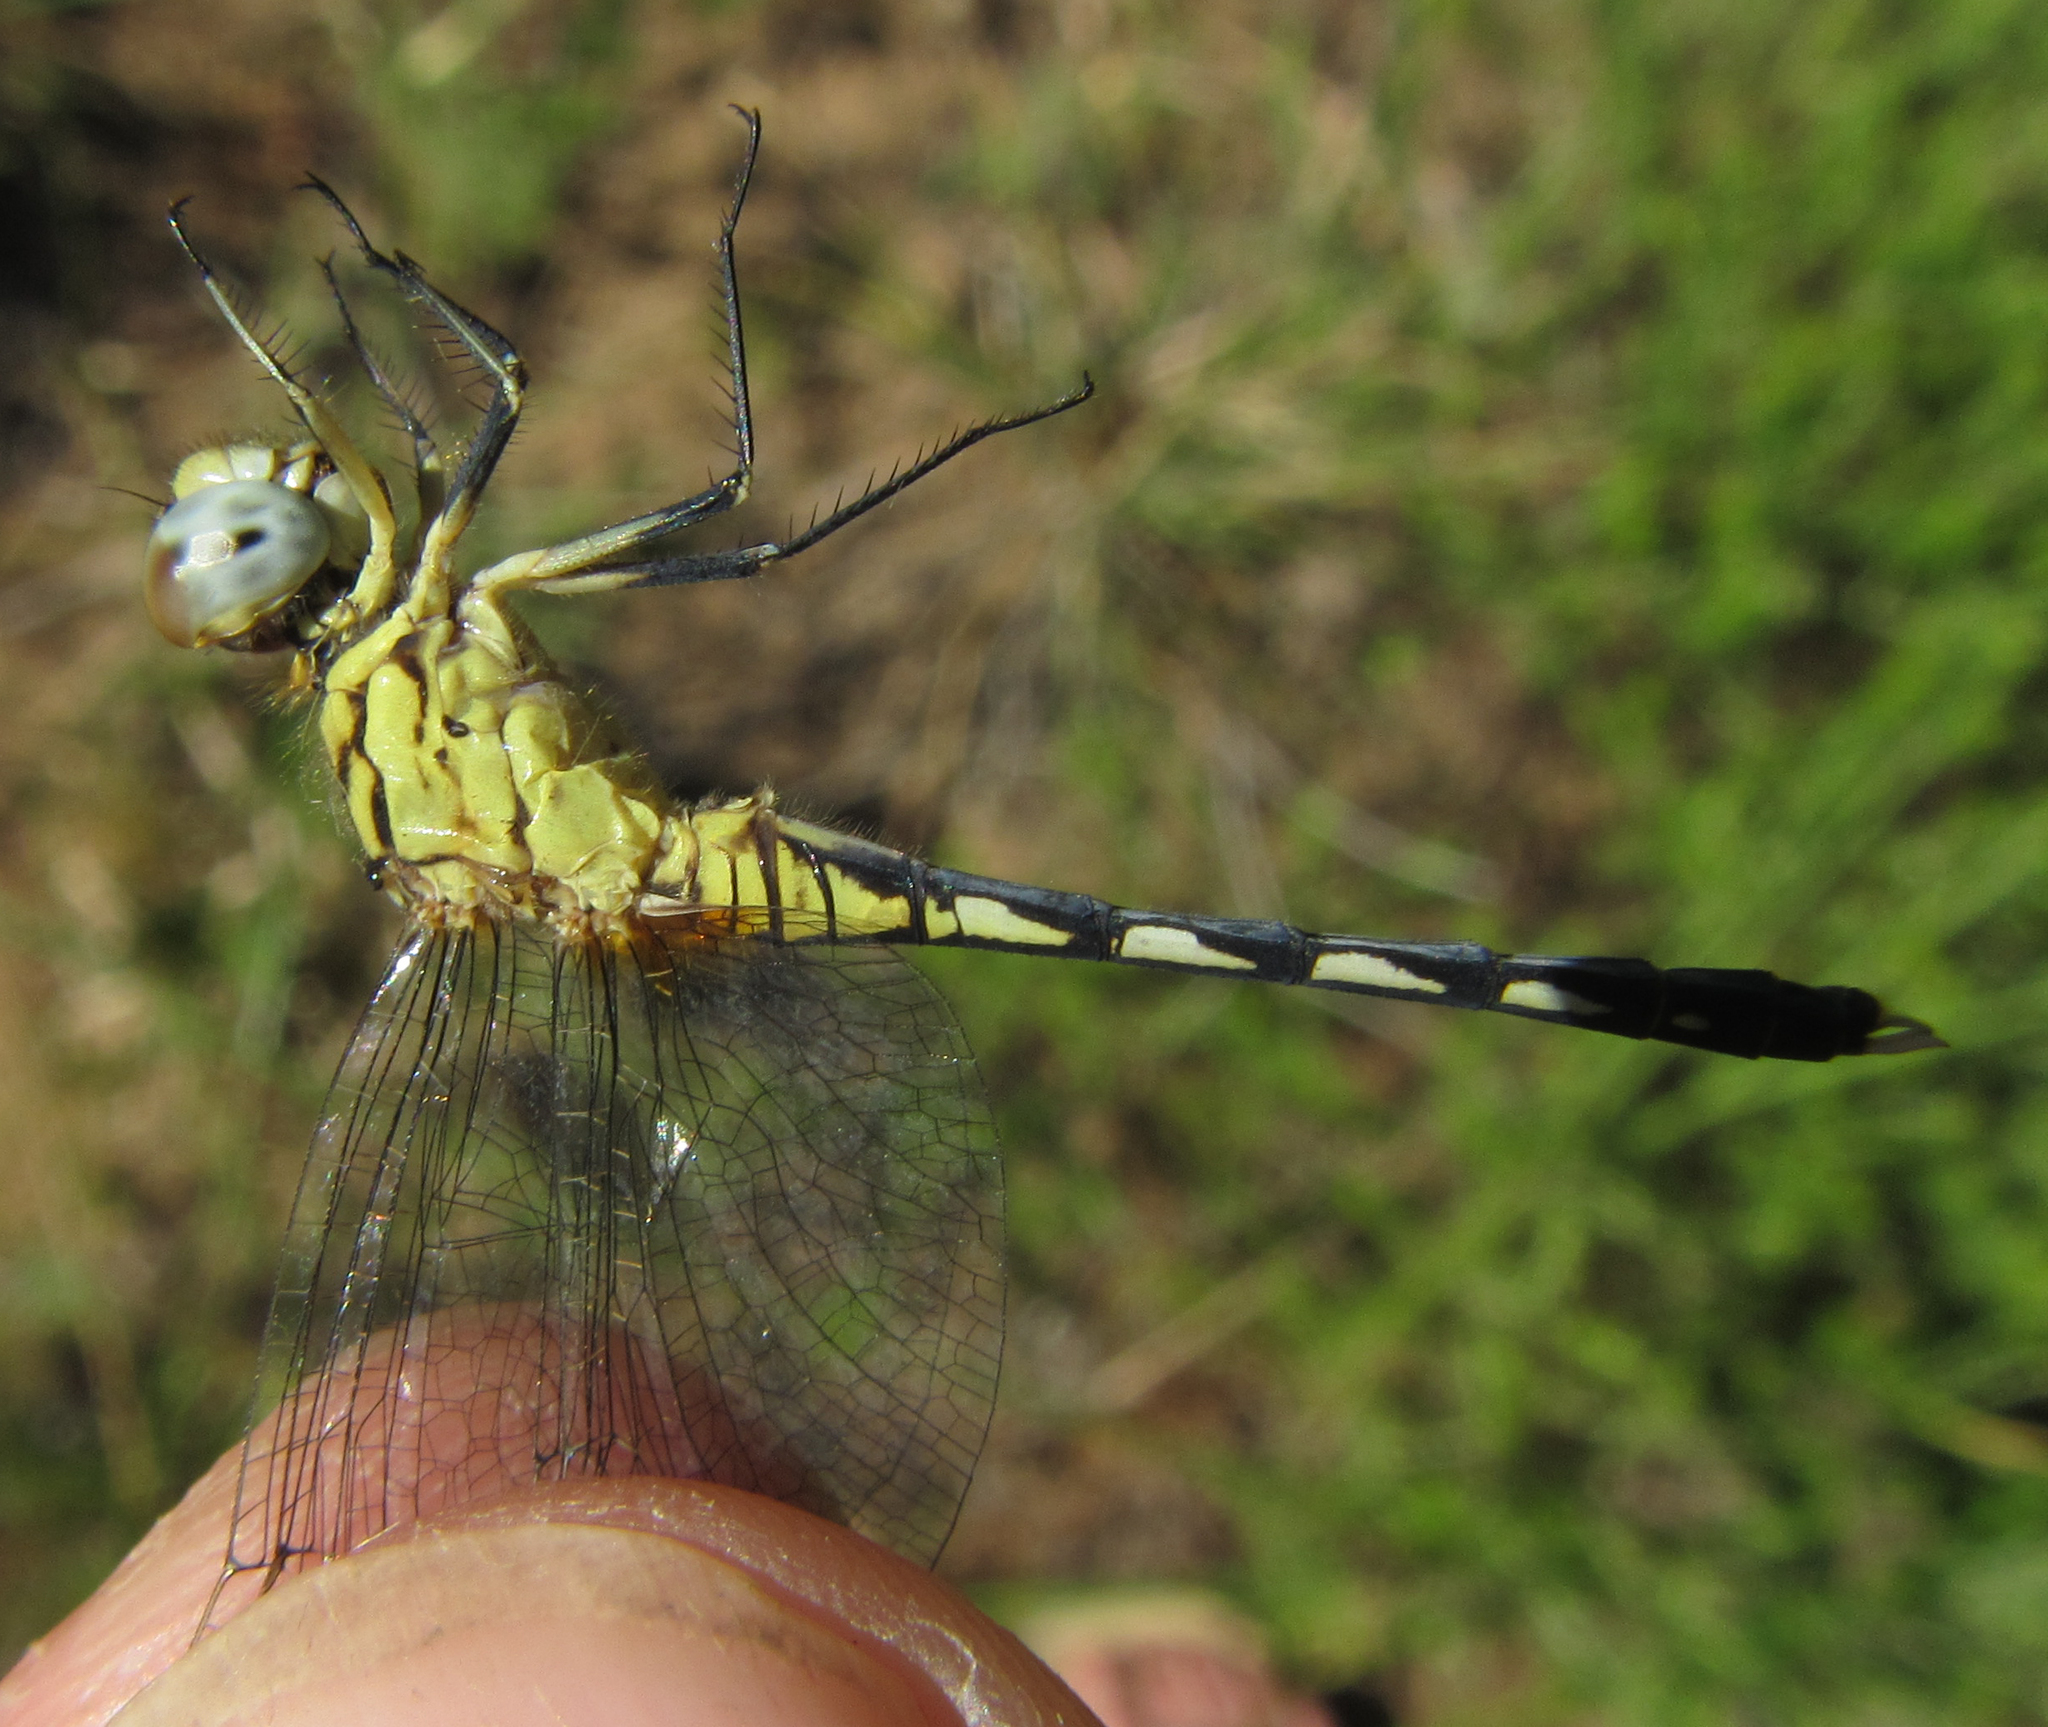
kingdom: Animalia
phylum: Arthropoda
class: Insecta
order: Odonata
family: Libellulidae
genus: Diplacodes
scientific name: Diplacodes lefebvrii
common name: Black percher
